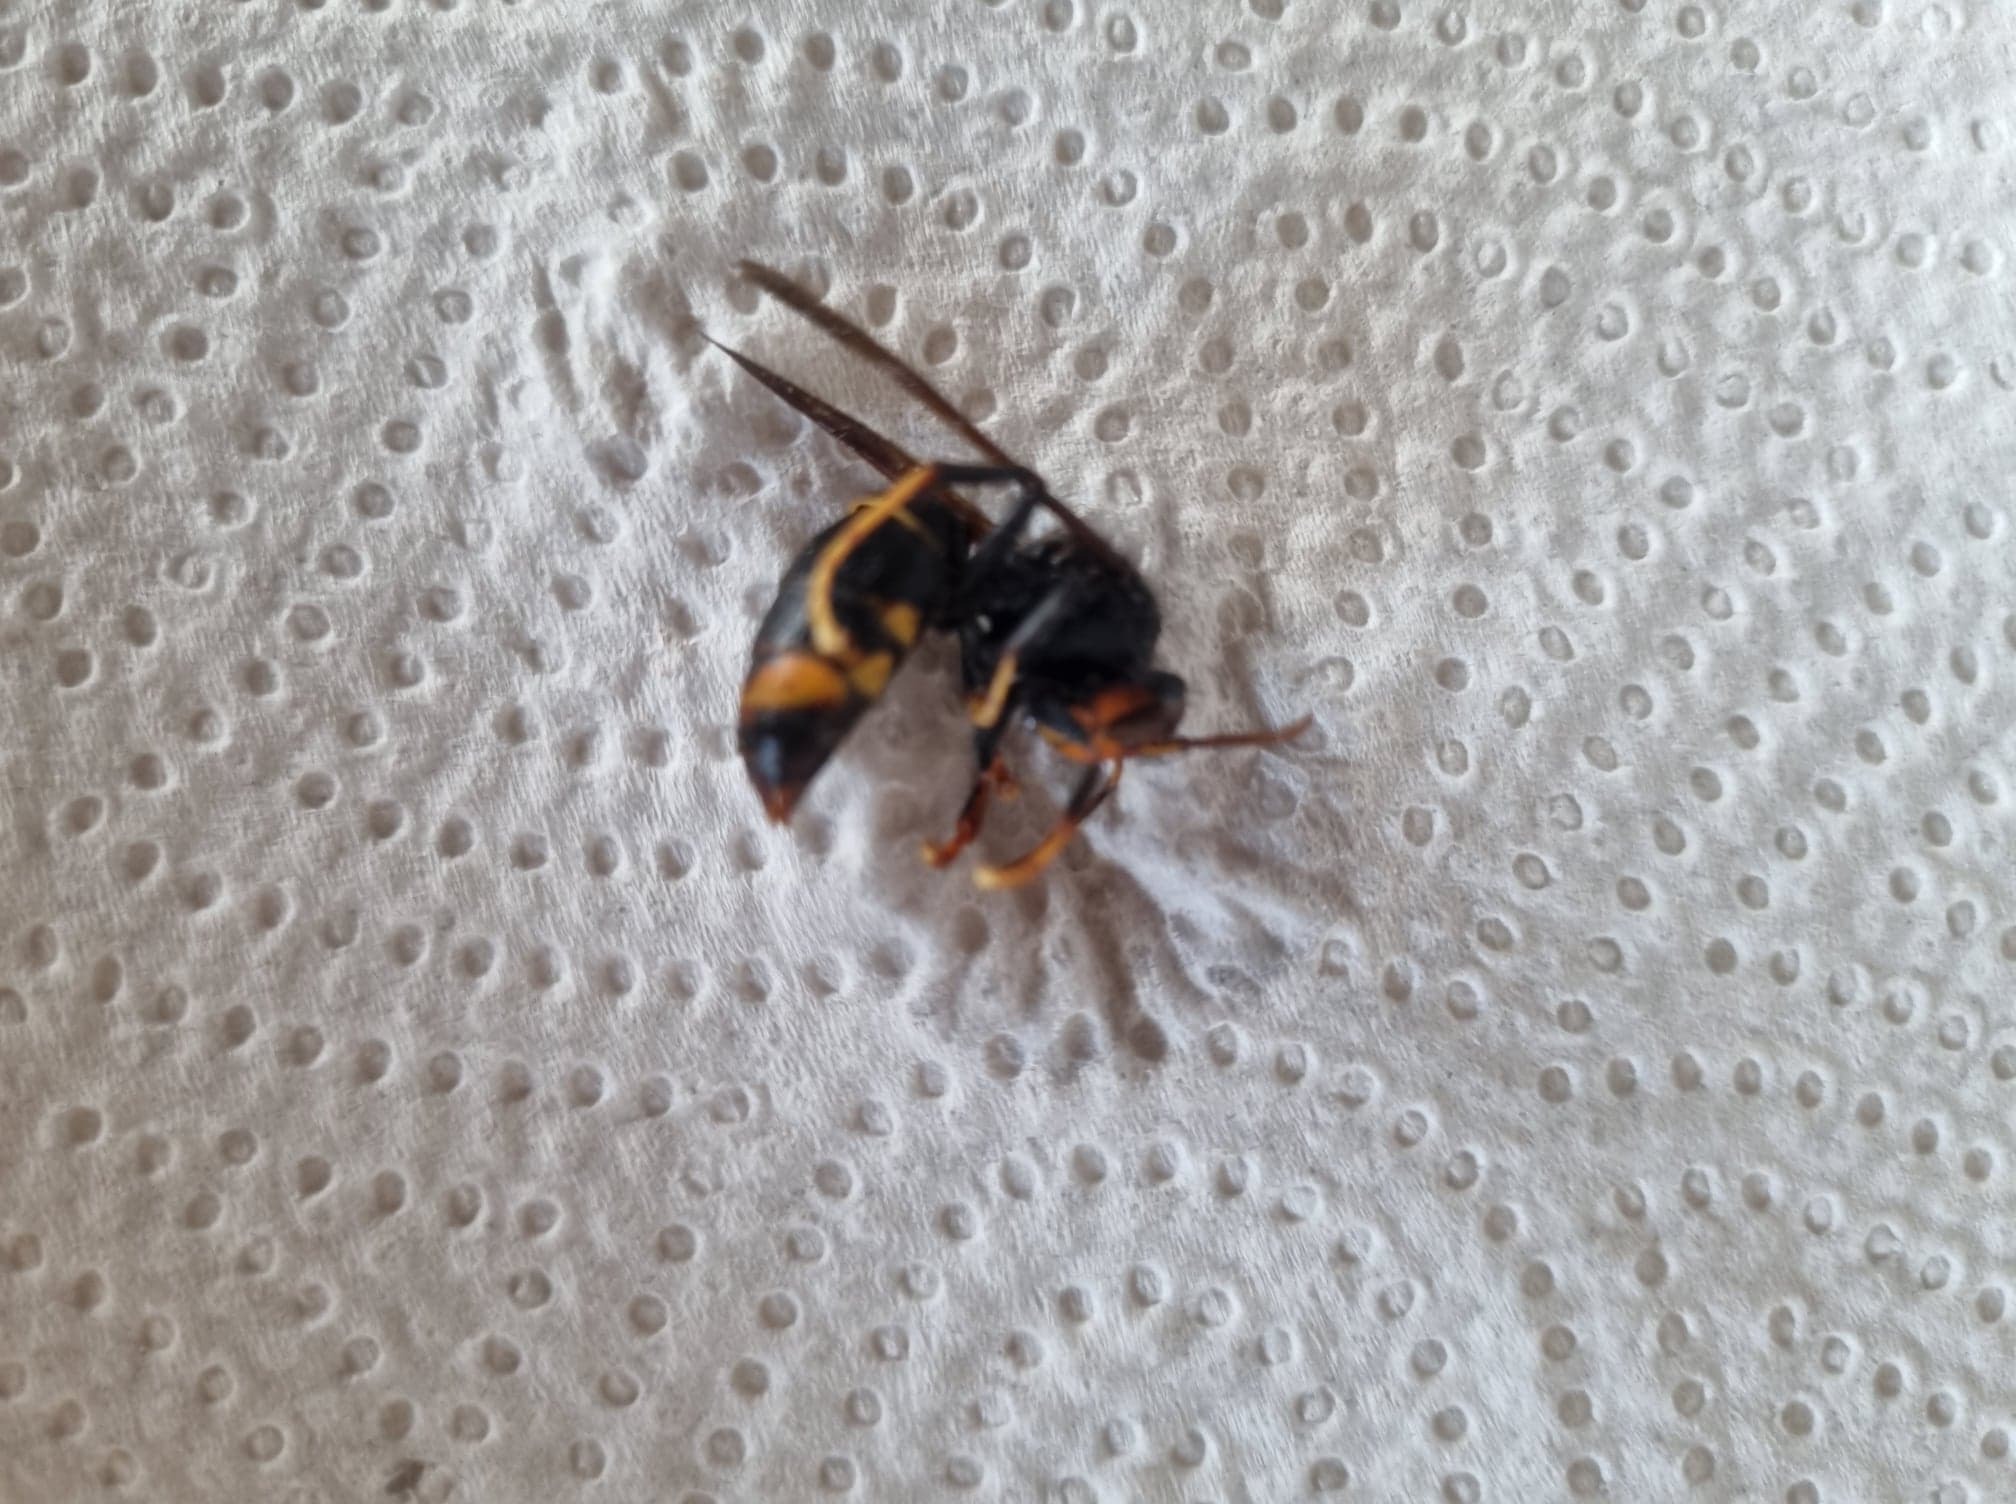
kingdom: Animalia
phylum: Arthropoda
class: Insecta
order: Hymenoptera
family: Vespidae
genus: Vespa
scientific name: Vespa velutina
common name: Asian hornet
